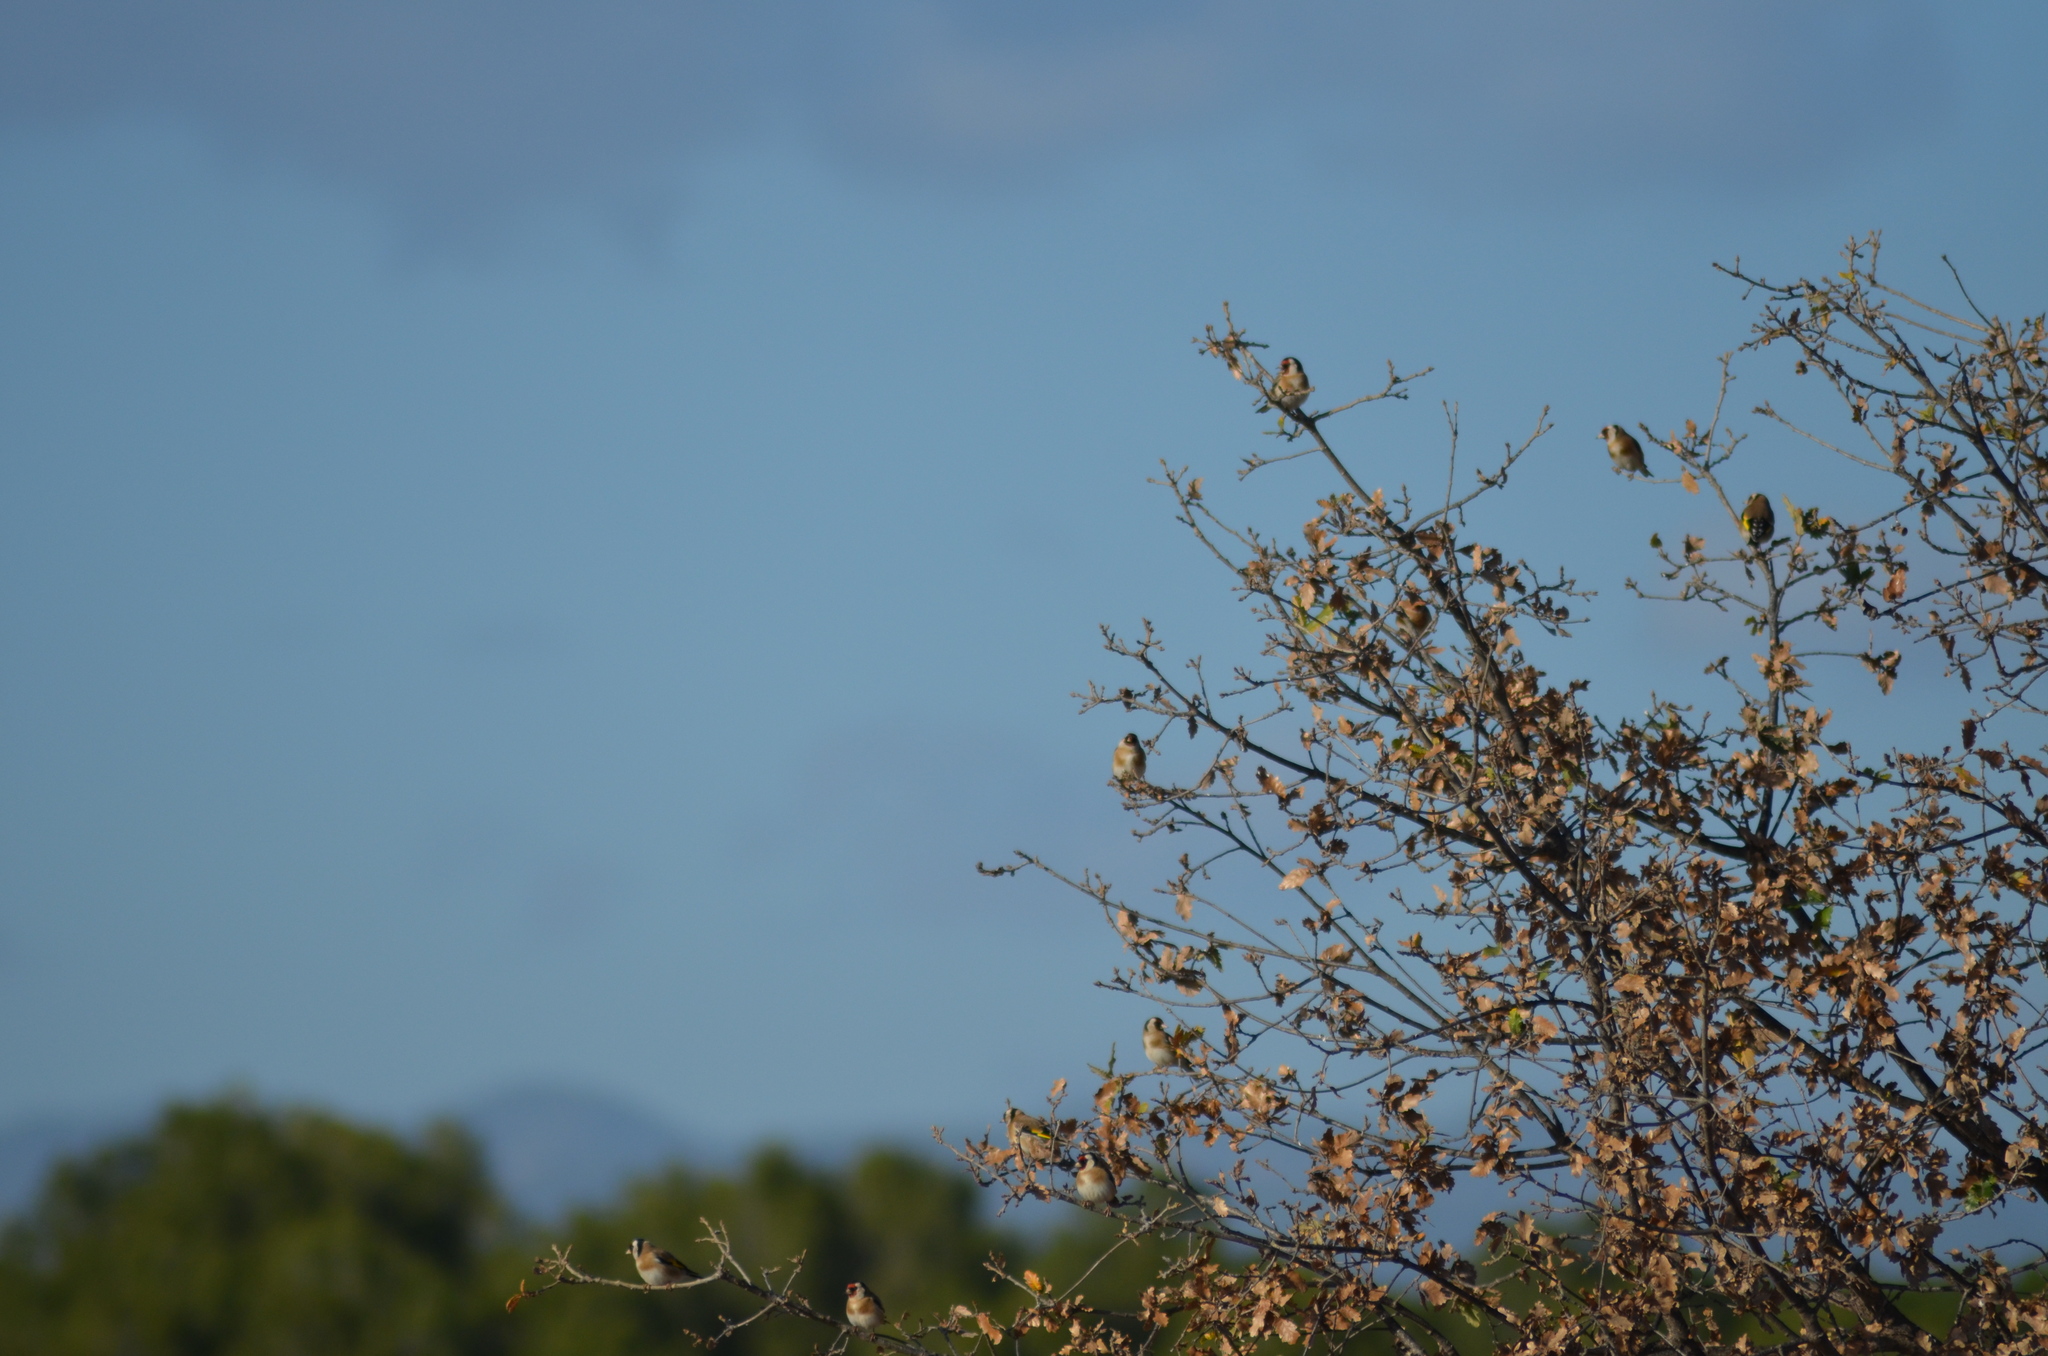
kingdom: Animalia
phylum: Chordata
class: Aves
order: Passeriformes
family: Fringillidae
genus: Carduelis
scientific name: Carduelis carduelis
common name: European goldfinch
